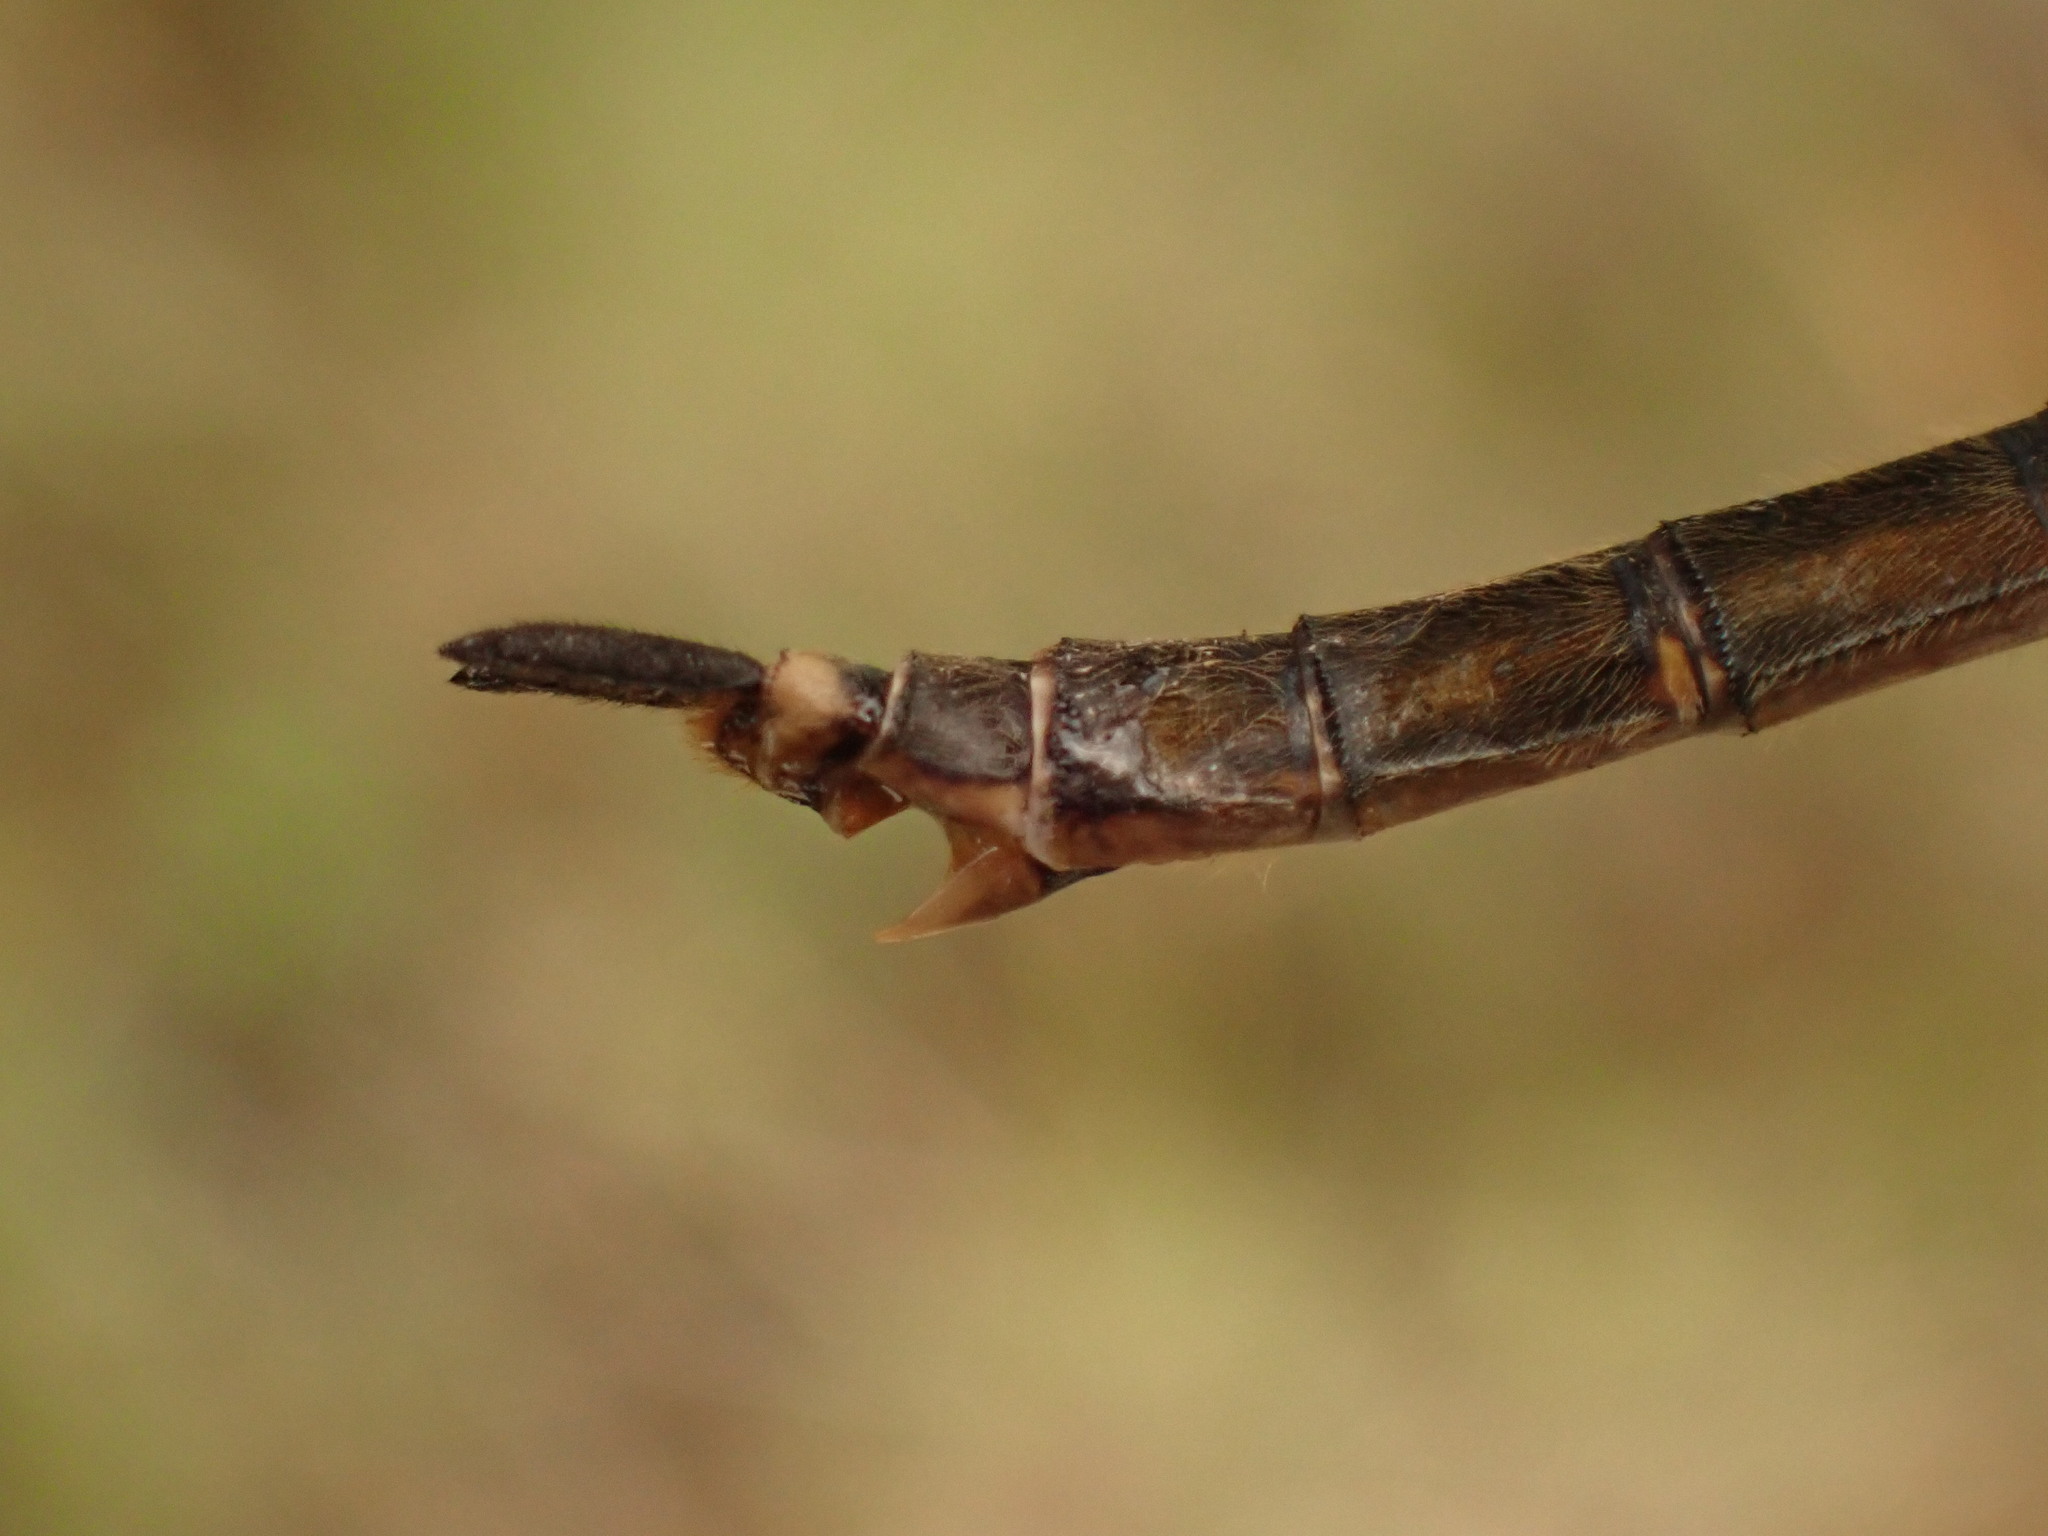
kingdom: Animalia
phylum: Arthropoda
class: Insecta
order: Odonata
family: Corduliidae
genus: Somatochlora
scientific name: Somatochlora brevicincta
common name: Quebec emerald
